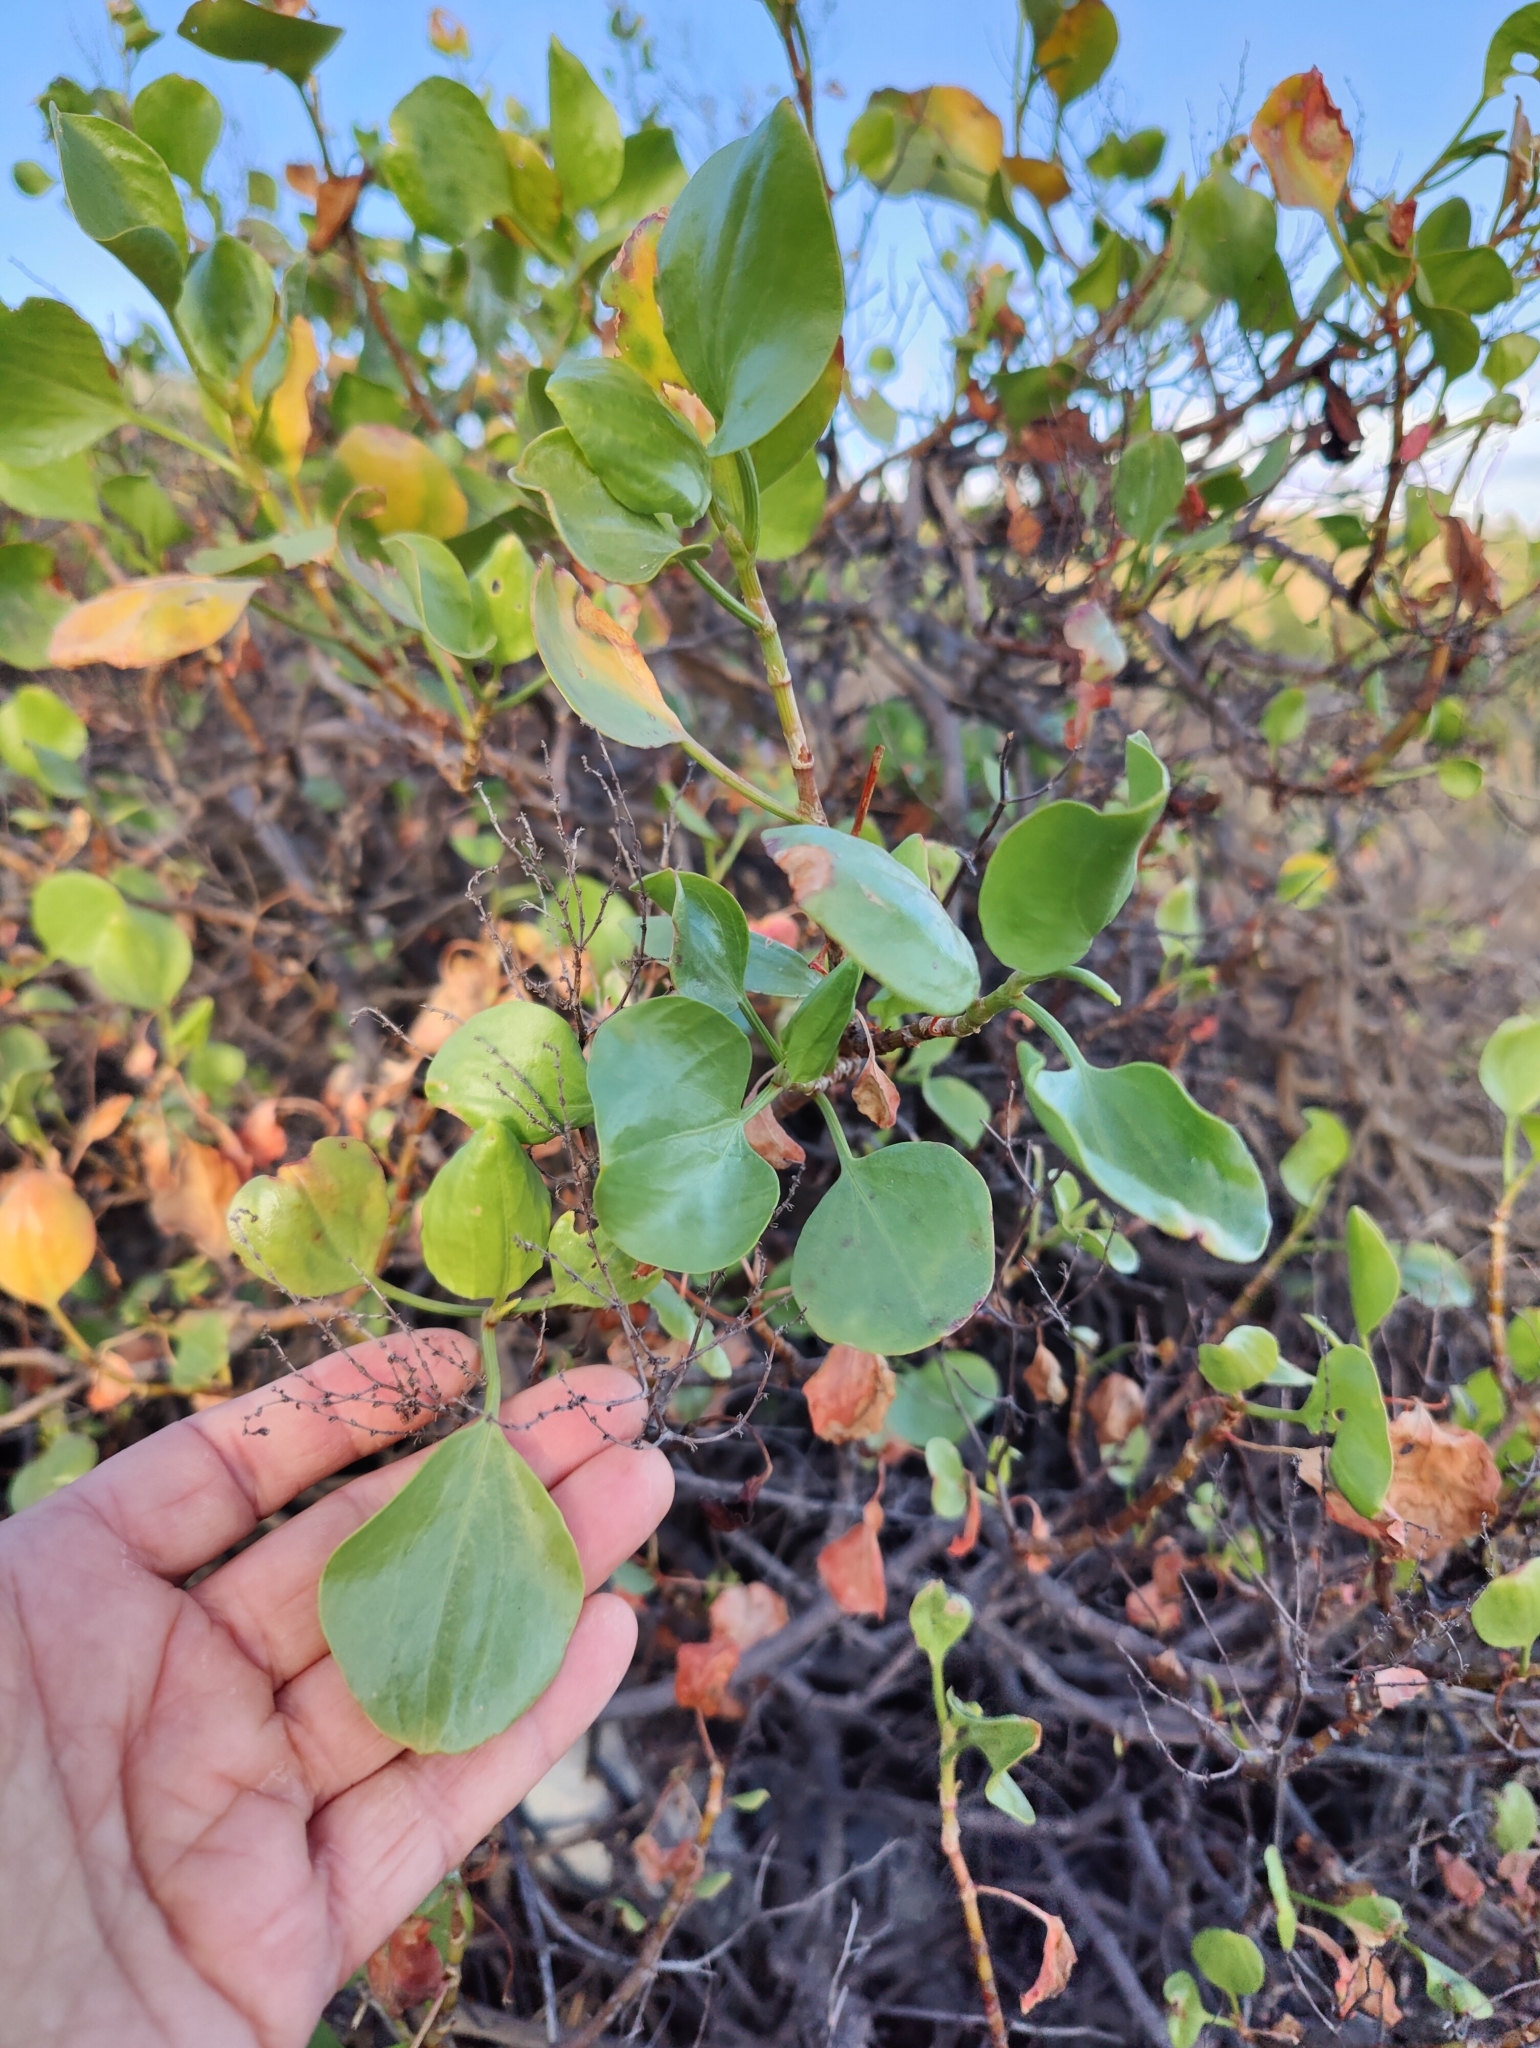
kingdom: Plantae
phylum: Tracheophyta
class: Magnoliopsida
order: Caryophyllales
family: Polygonaceae
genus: Rumex
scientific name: Rumex lunaria
